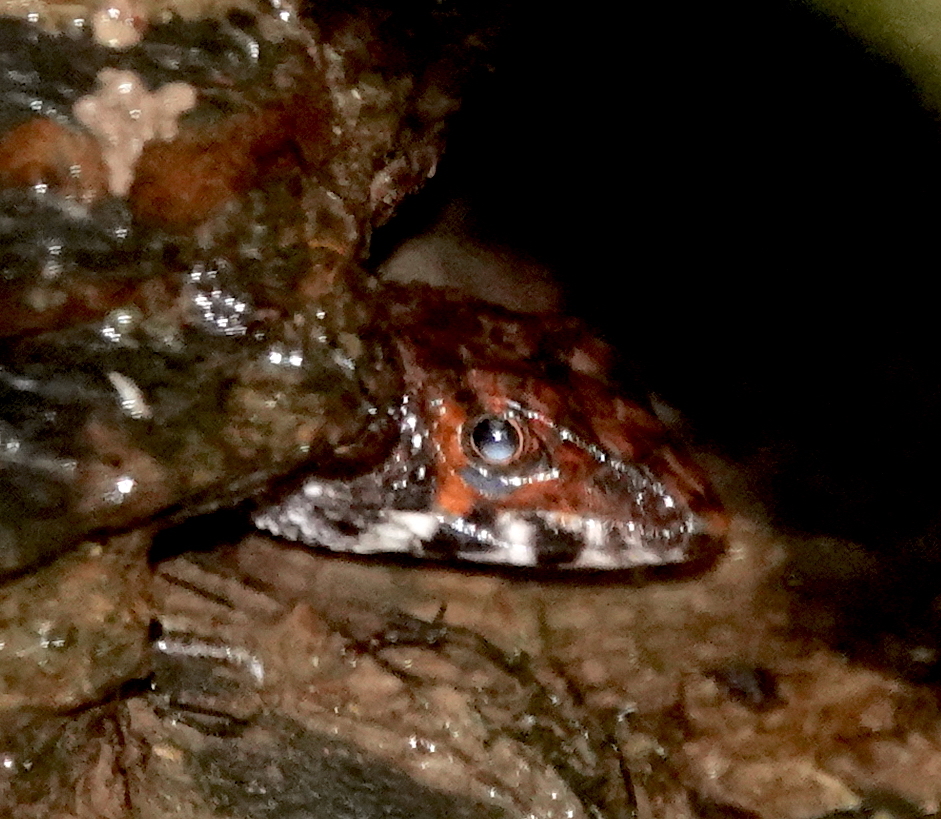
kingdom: Animalia
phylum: Chordata
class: Squamata
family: Gymnophthalmidae
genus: Potamites
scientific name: Potamites ecpleopus
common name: Common stream lizard
